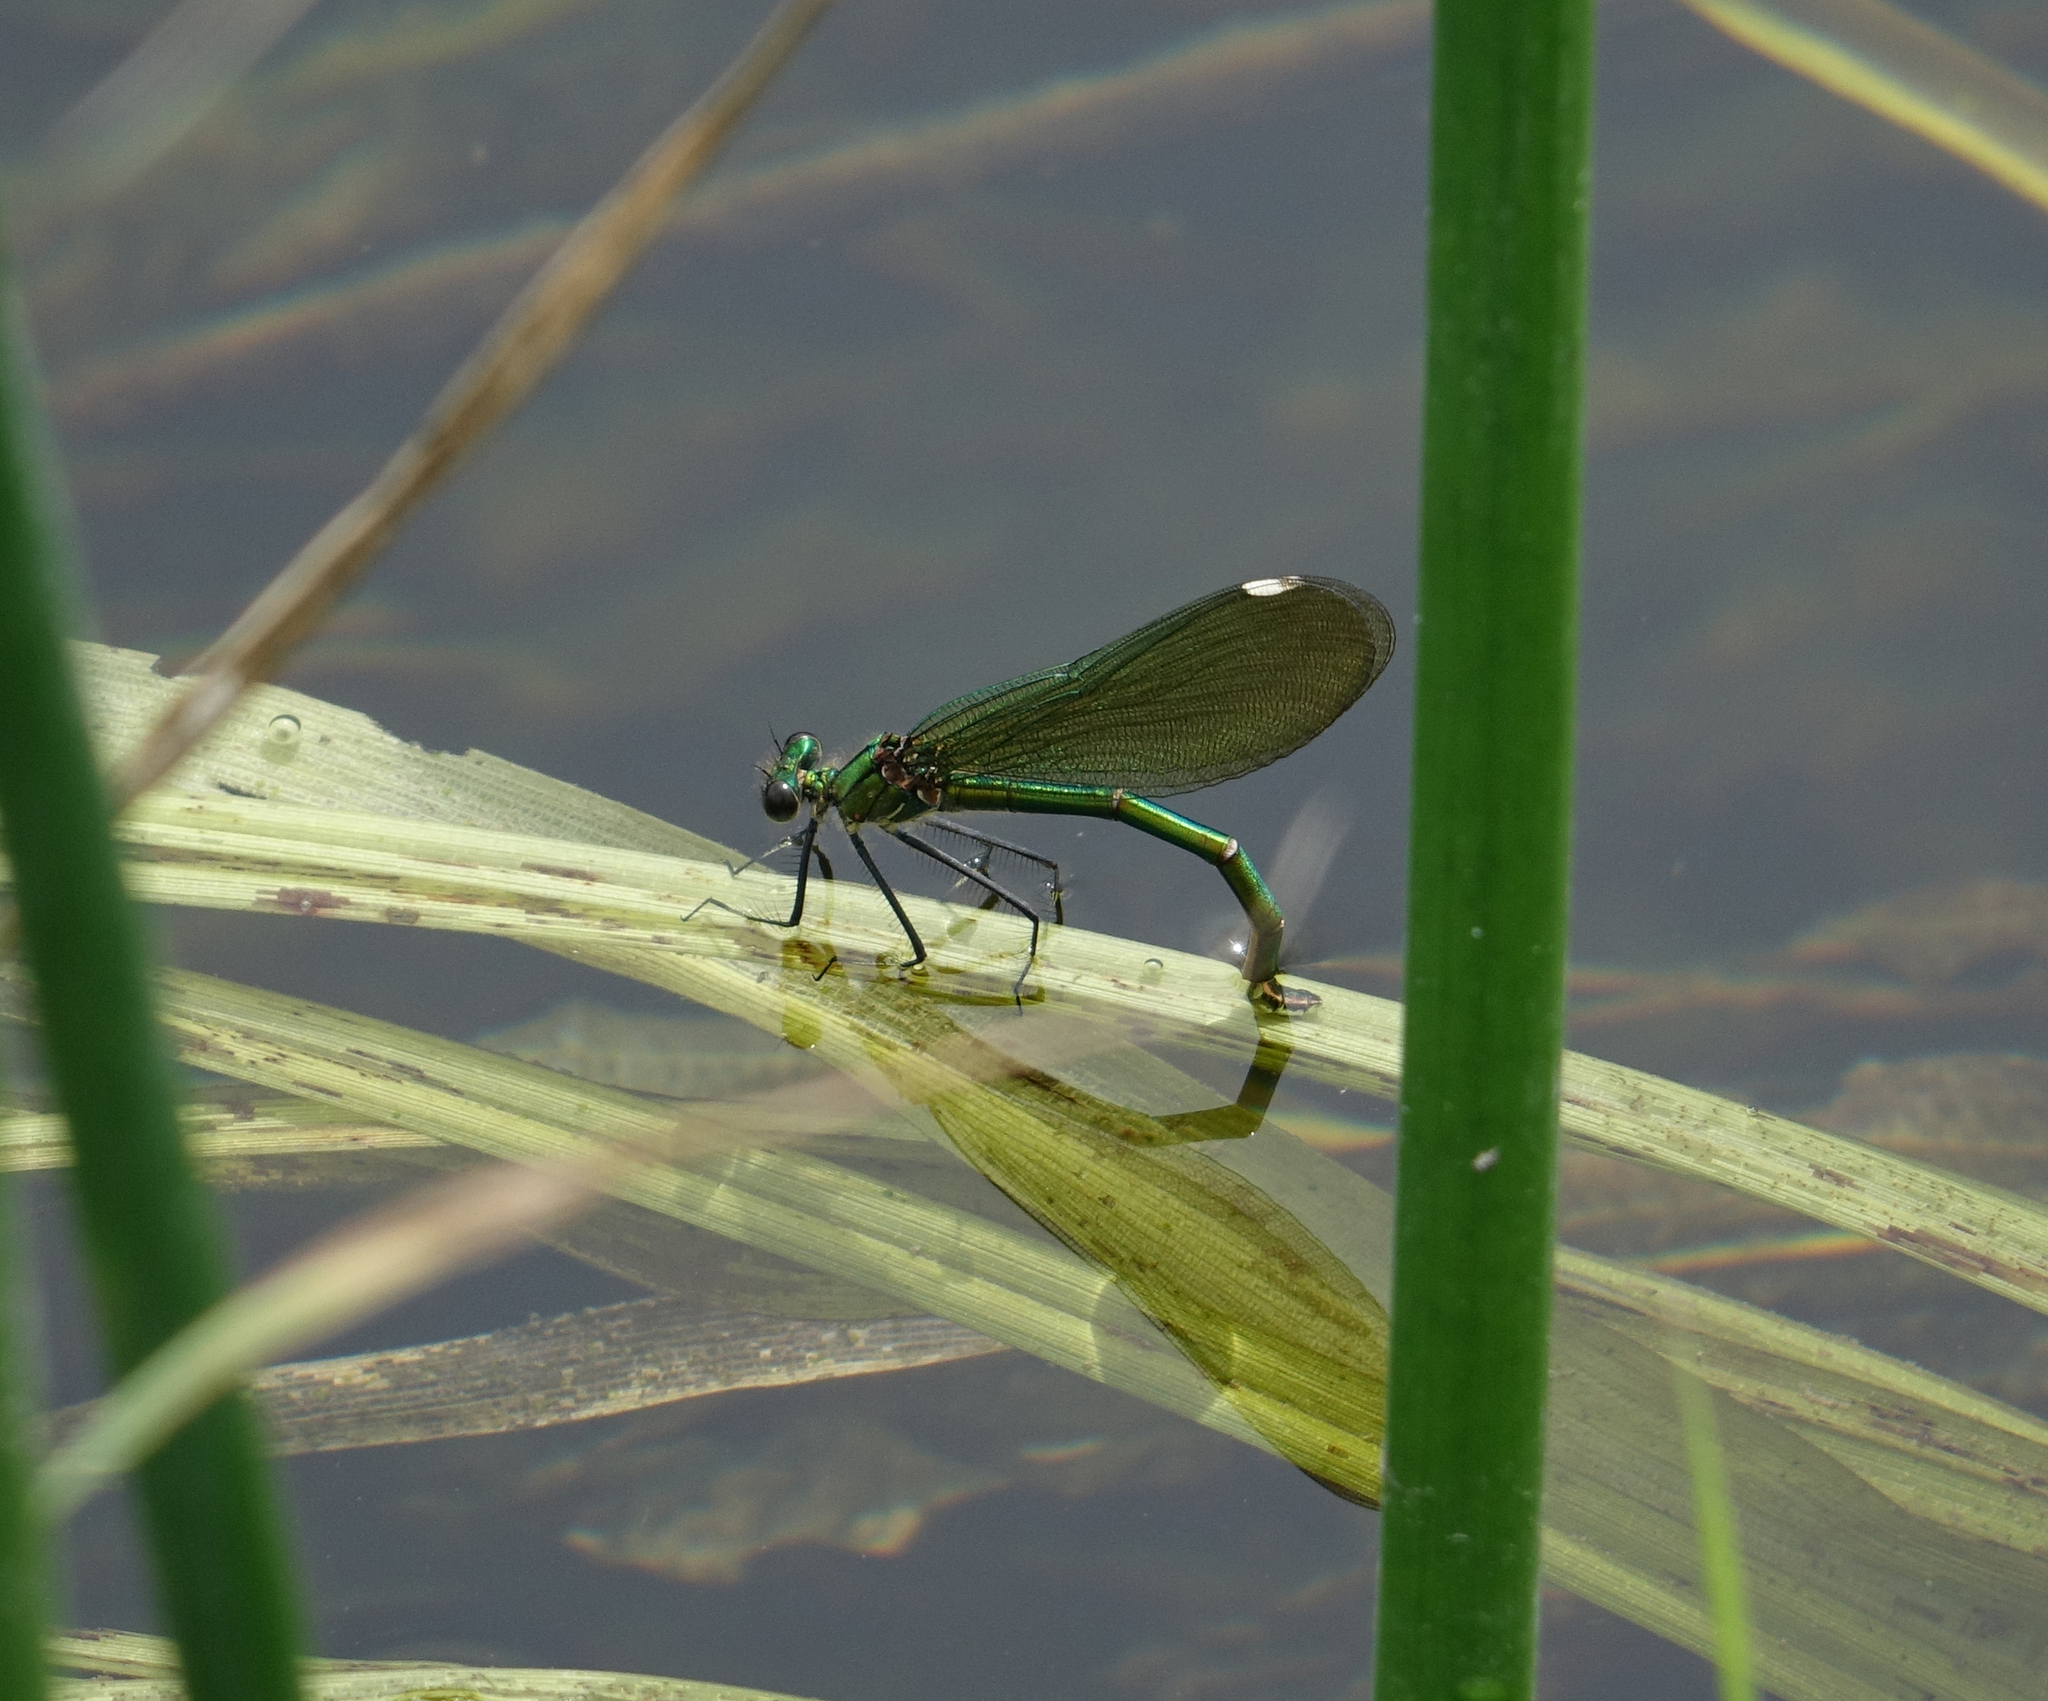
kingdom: Animalia
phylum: Arthropoda
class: Insecta
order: Odonata
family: Calopterygidae
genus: Calopteryx
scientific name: Calopteryx splendens
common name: Banded demoiselle
